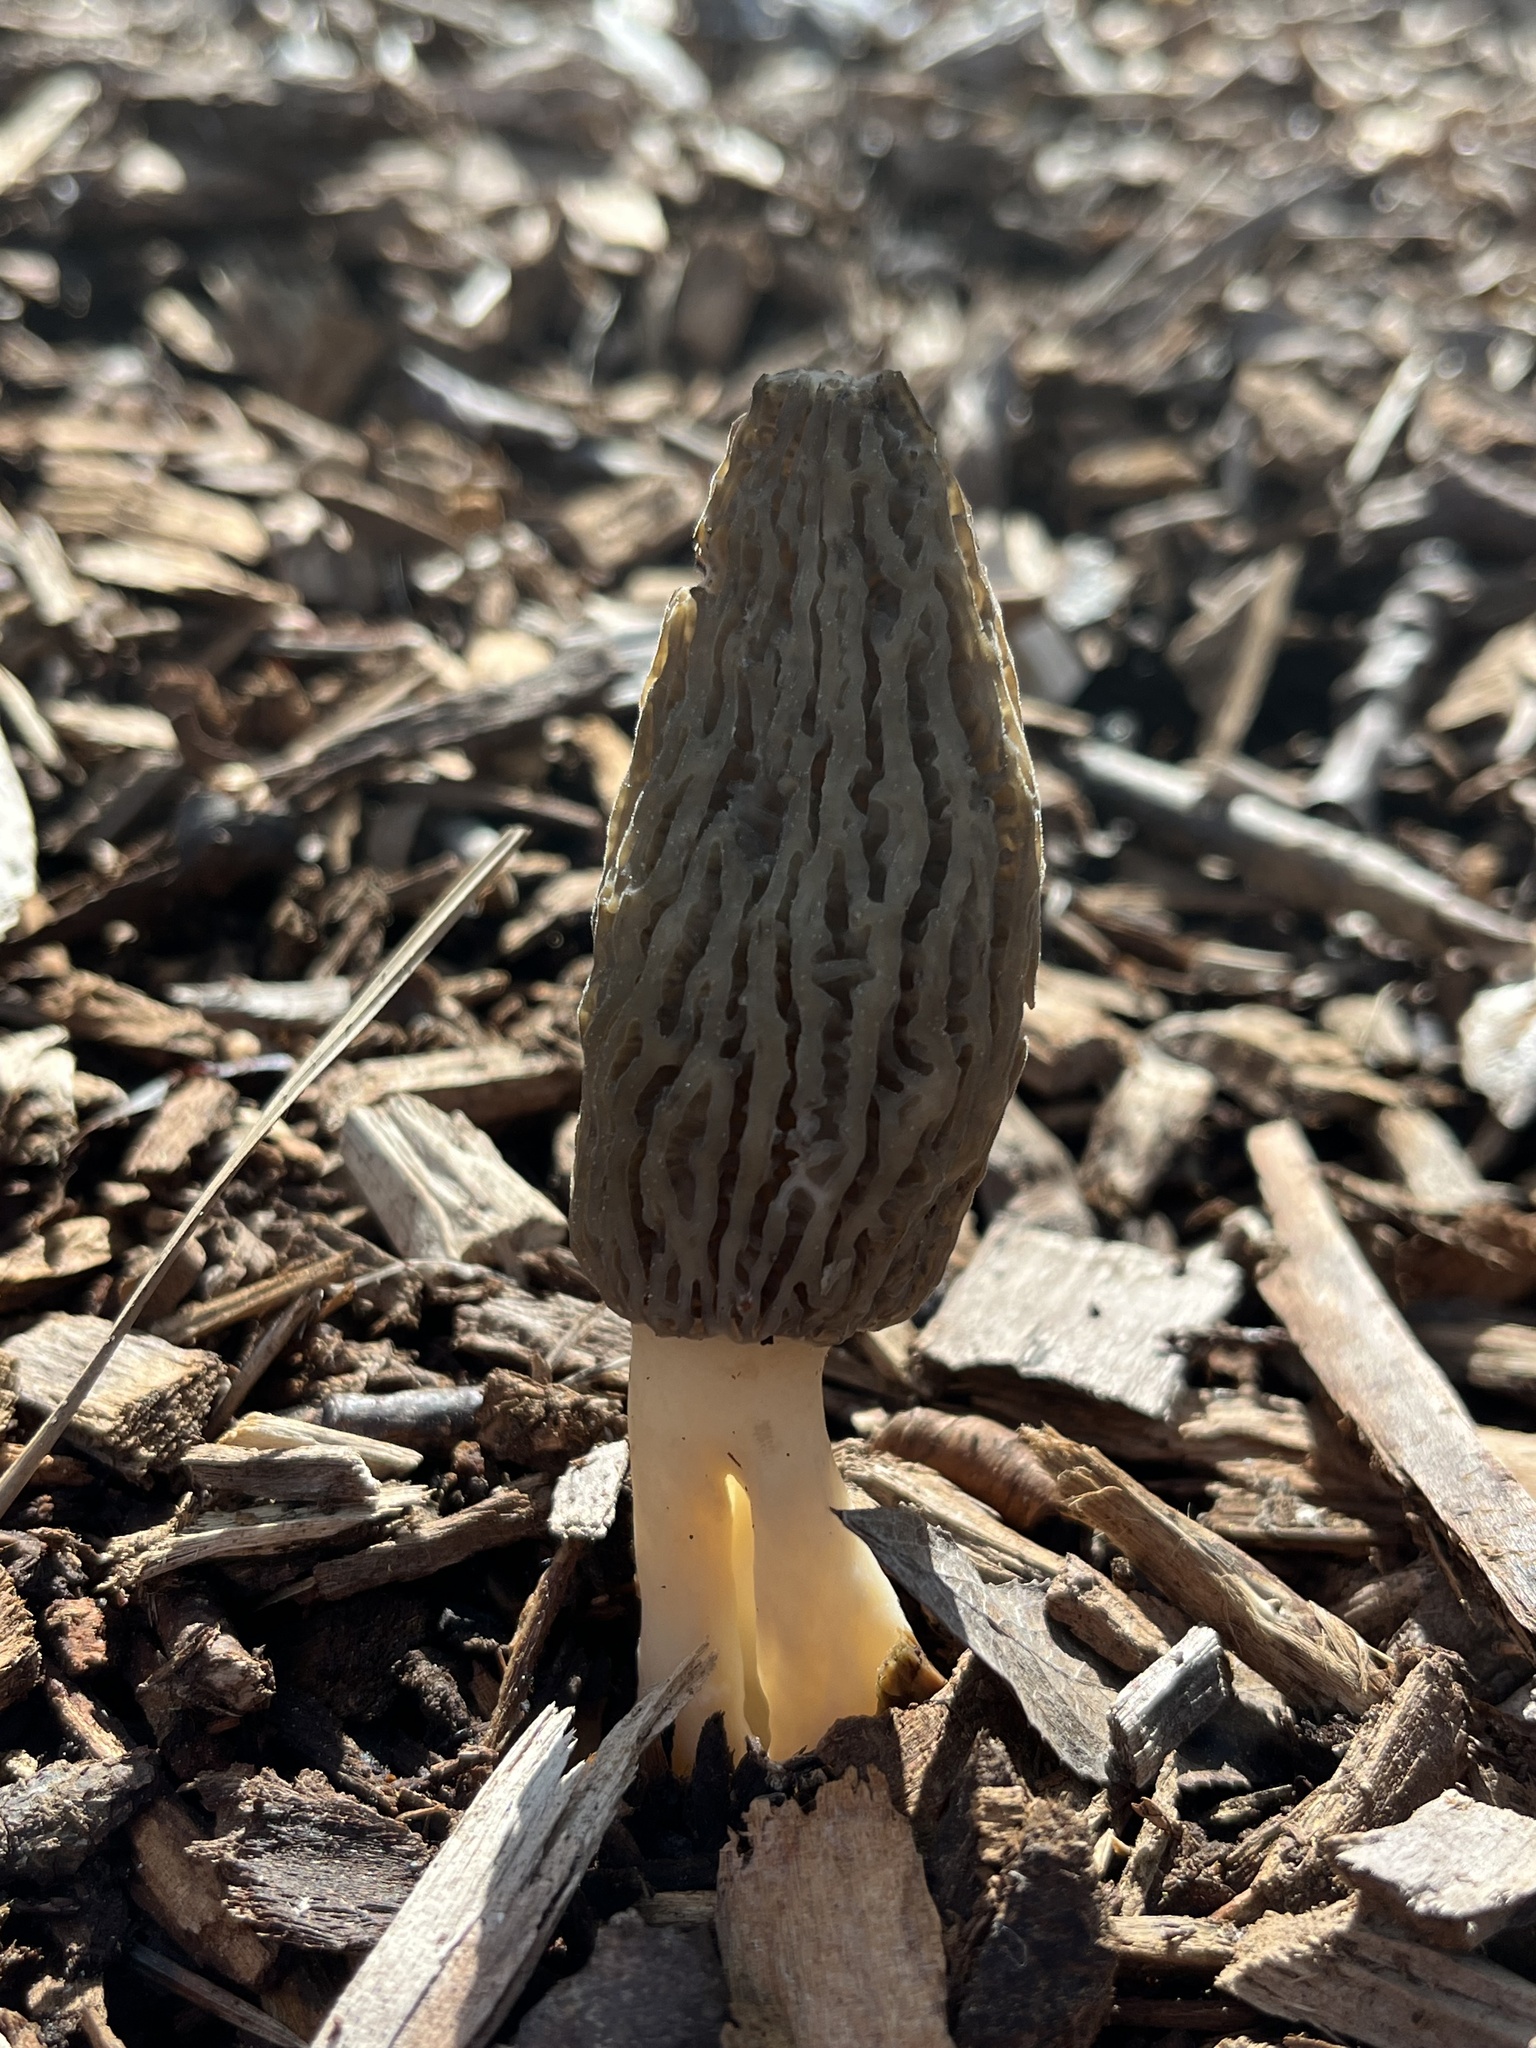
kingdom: Fungi
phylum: Ascomycota
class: Pezizomycetes
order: Pezizales
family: Morchellaceae
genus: Morchella
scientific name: Morchella importuna
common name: Landscaping black morel
